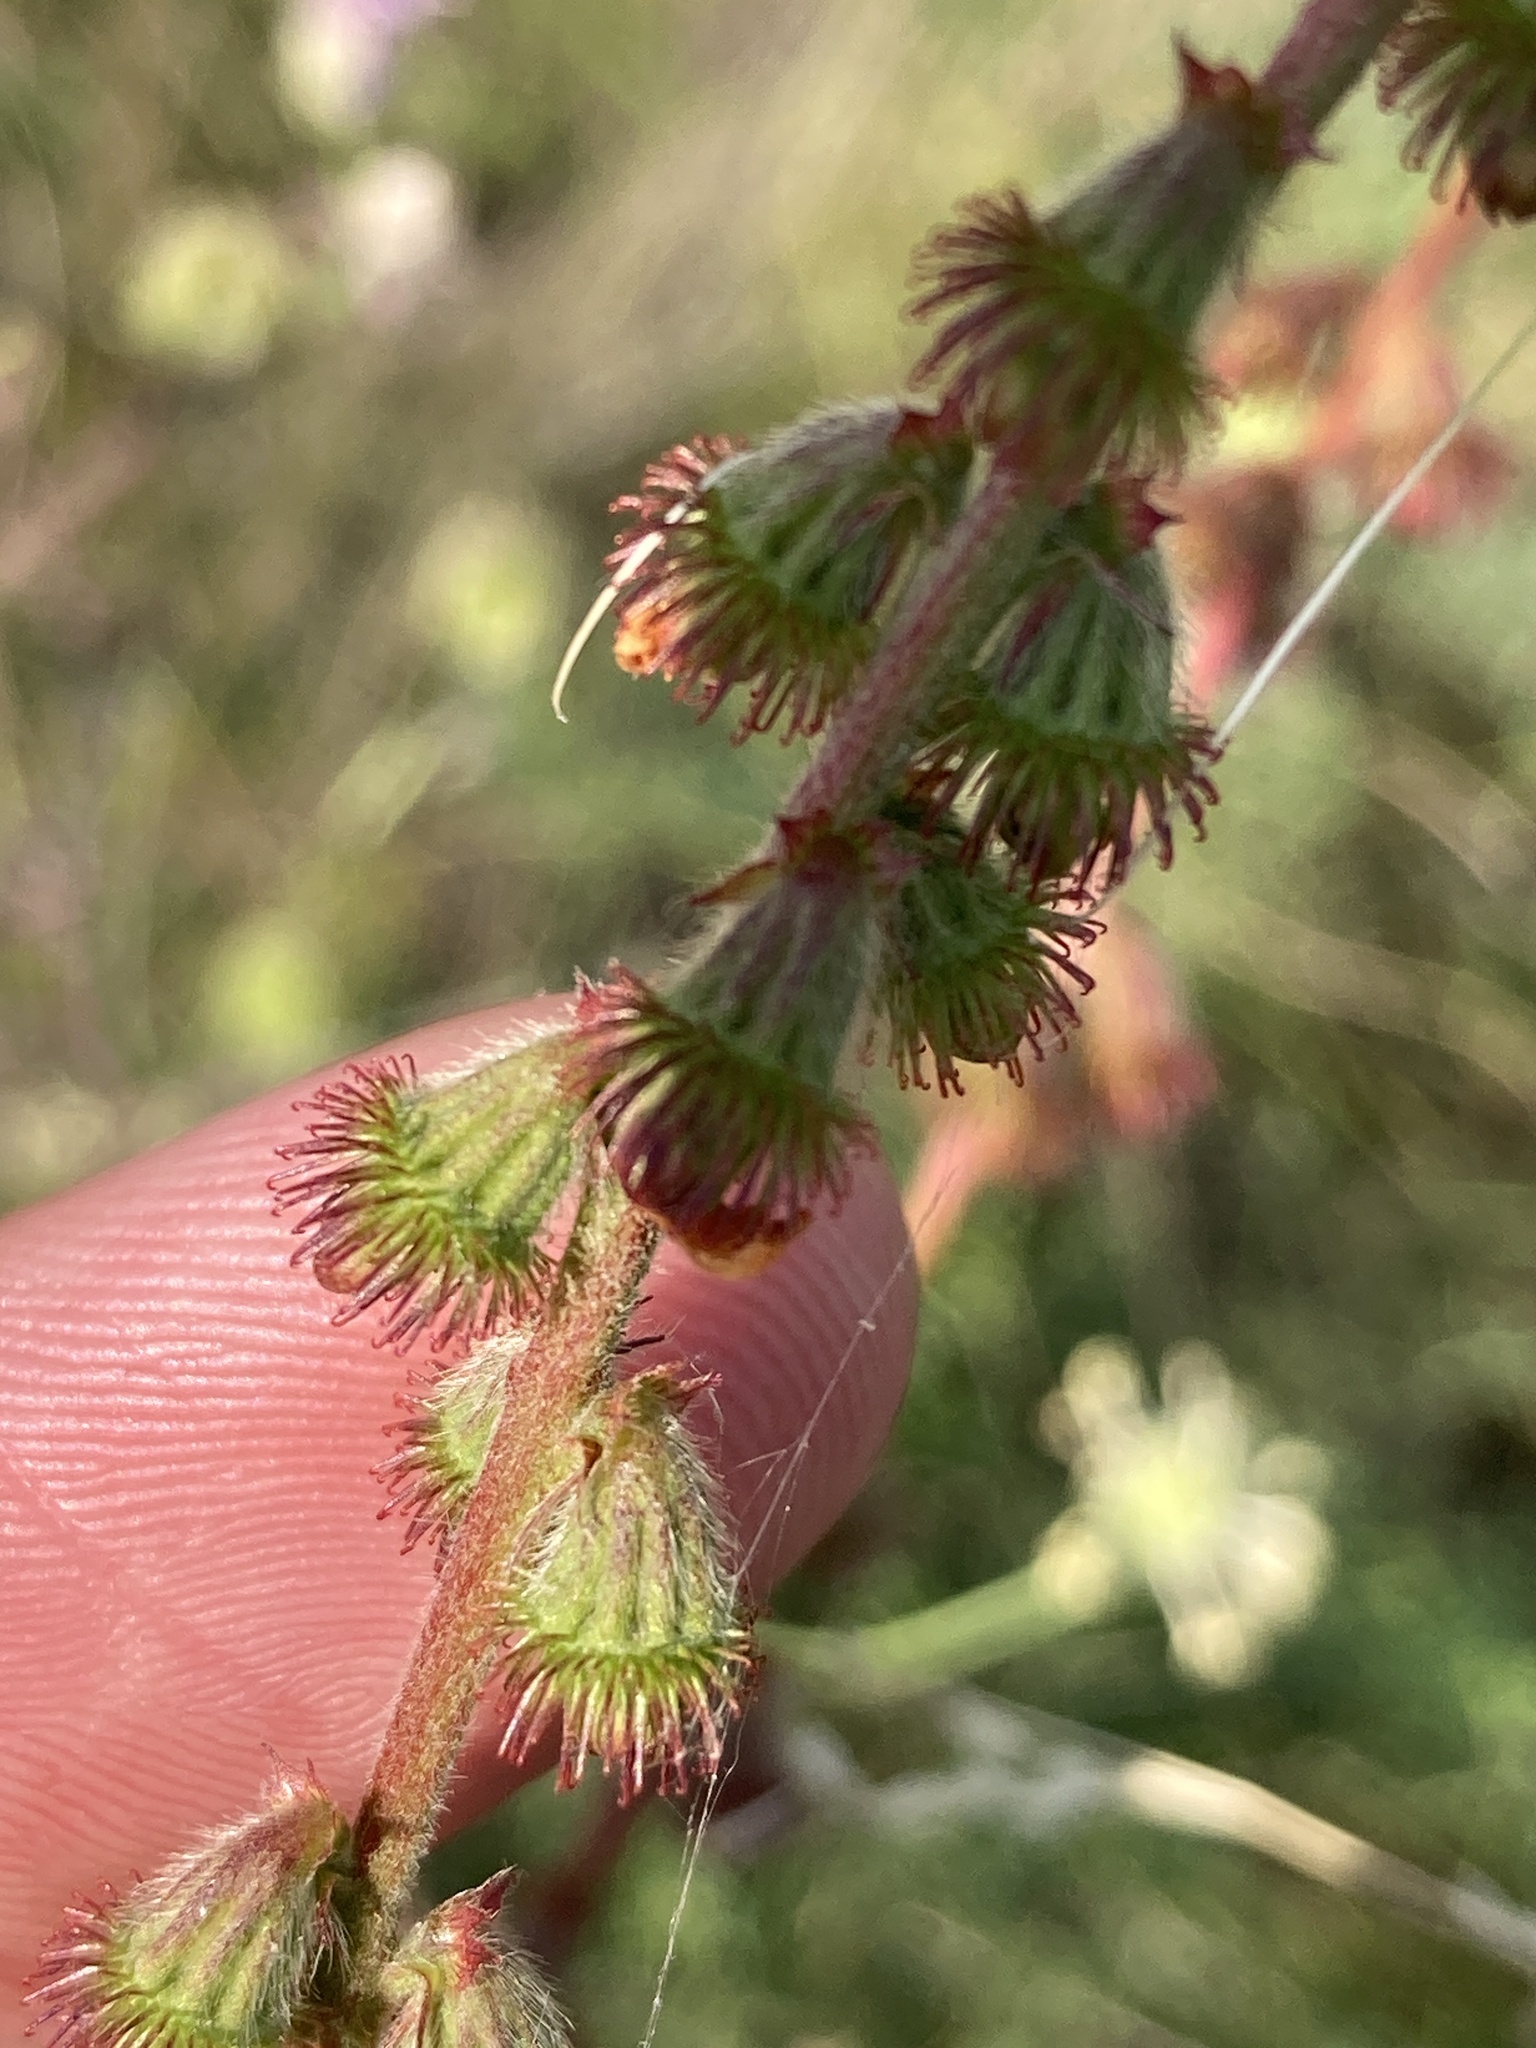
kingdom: Plantae
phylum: Tracheophyta
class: Magnoliopsida
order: Rosales
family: Rosaceae
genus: Agrimonia
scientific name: Agrimonia eupatoria
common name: Agrimony
